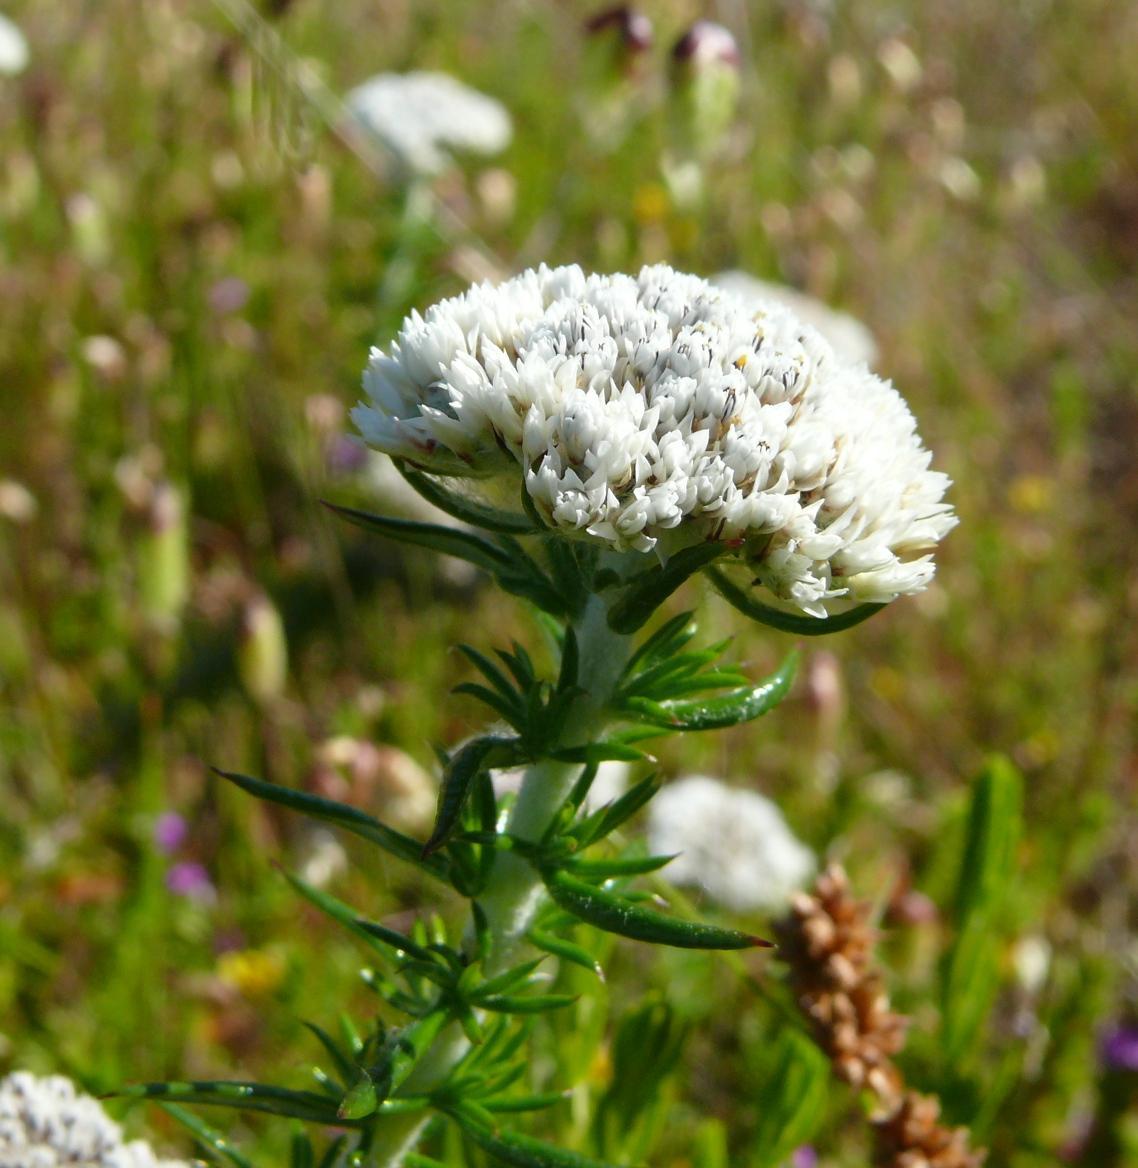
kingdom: Plantae
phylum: Tracheophyta
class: Magnoliopsida
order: Asterales
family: Asteraceae
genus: Metalasia
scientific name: Metalasia densa
